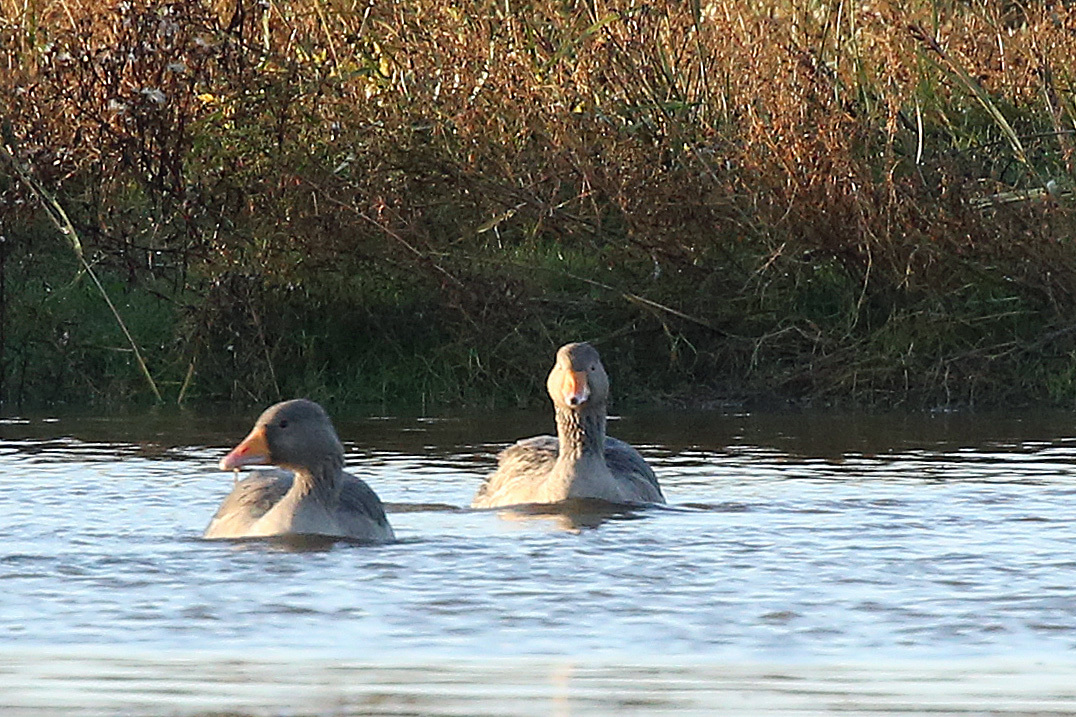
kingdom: Animalia
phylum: Chordata
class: Aves
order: Anseriformes
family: Anatidae
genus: Anser
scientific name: Anser anser
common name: Greylag goose
